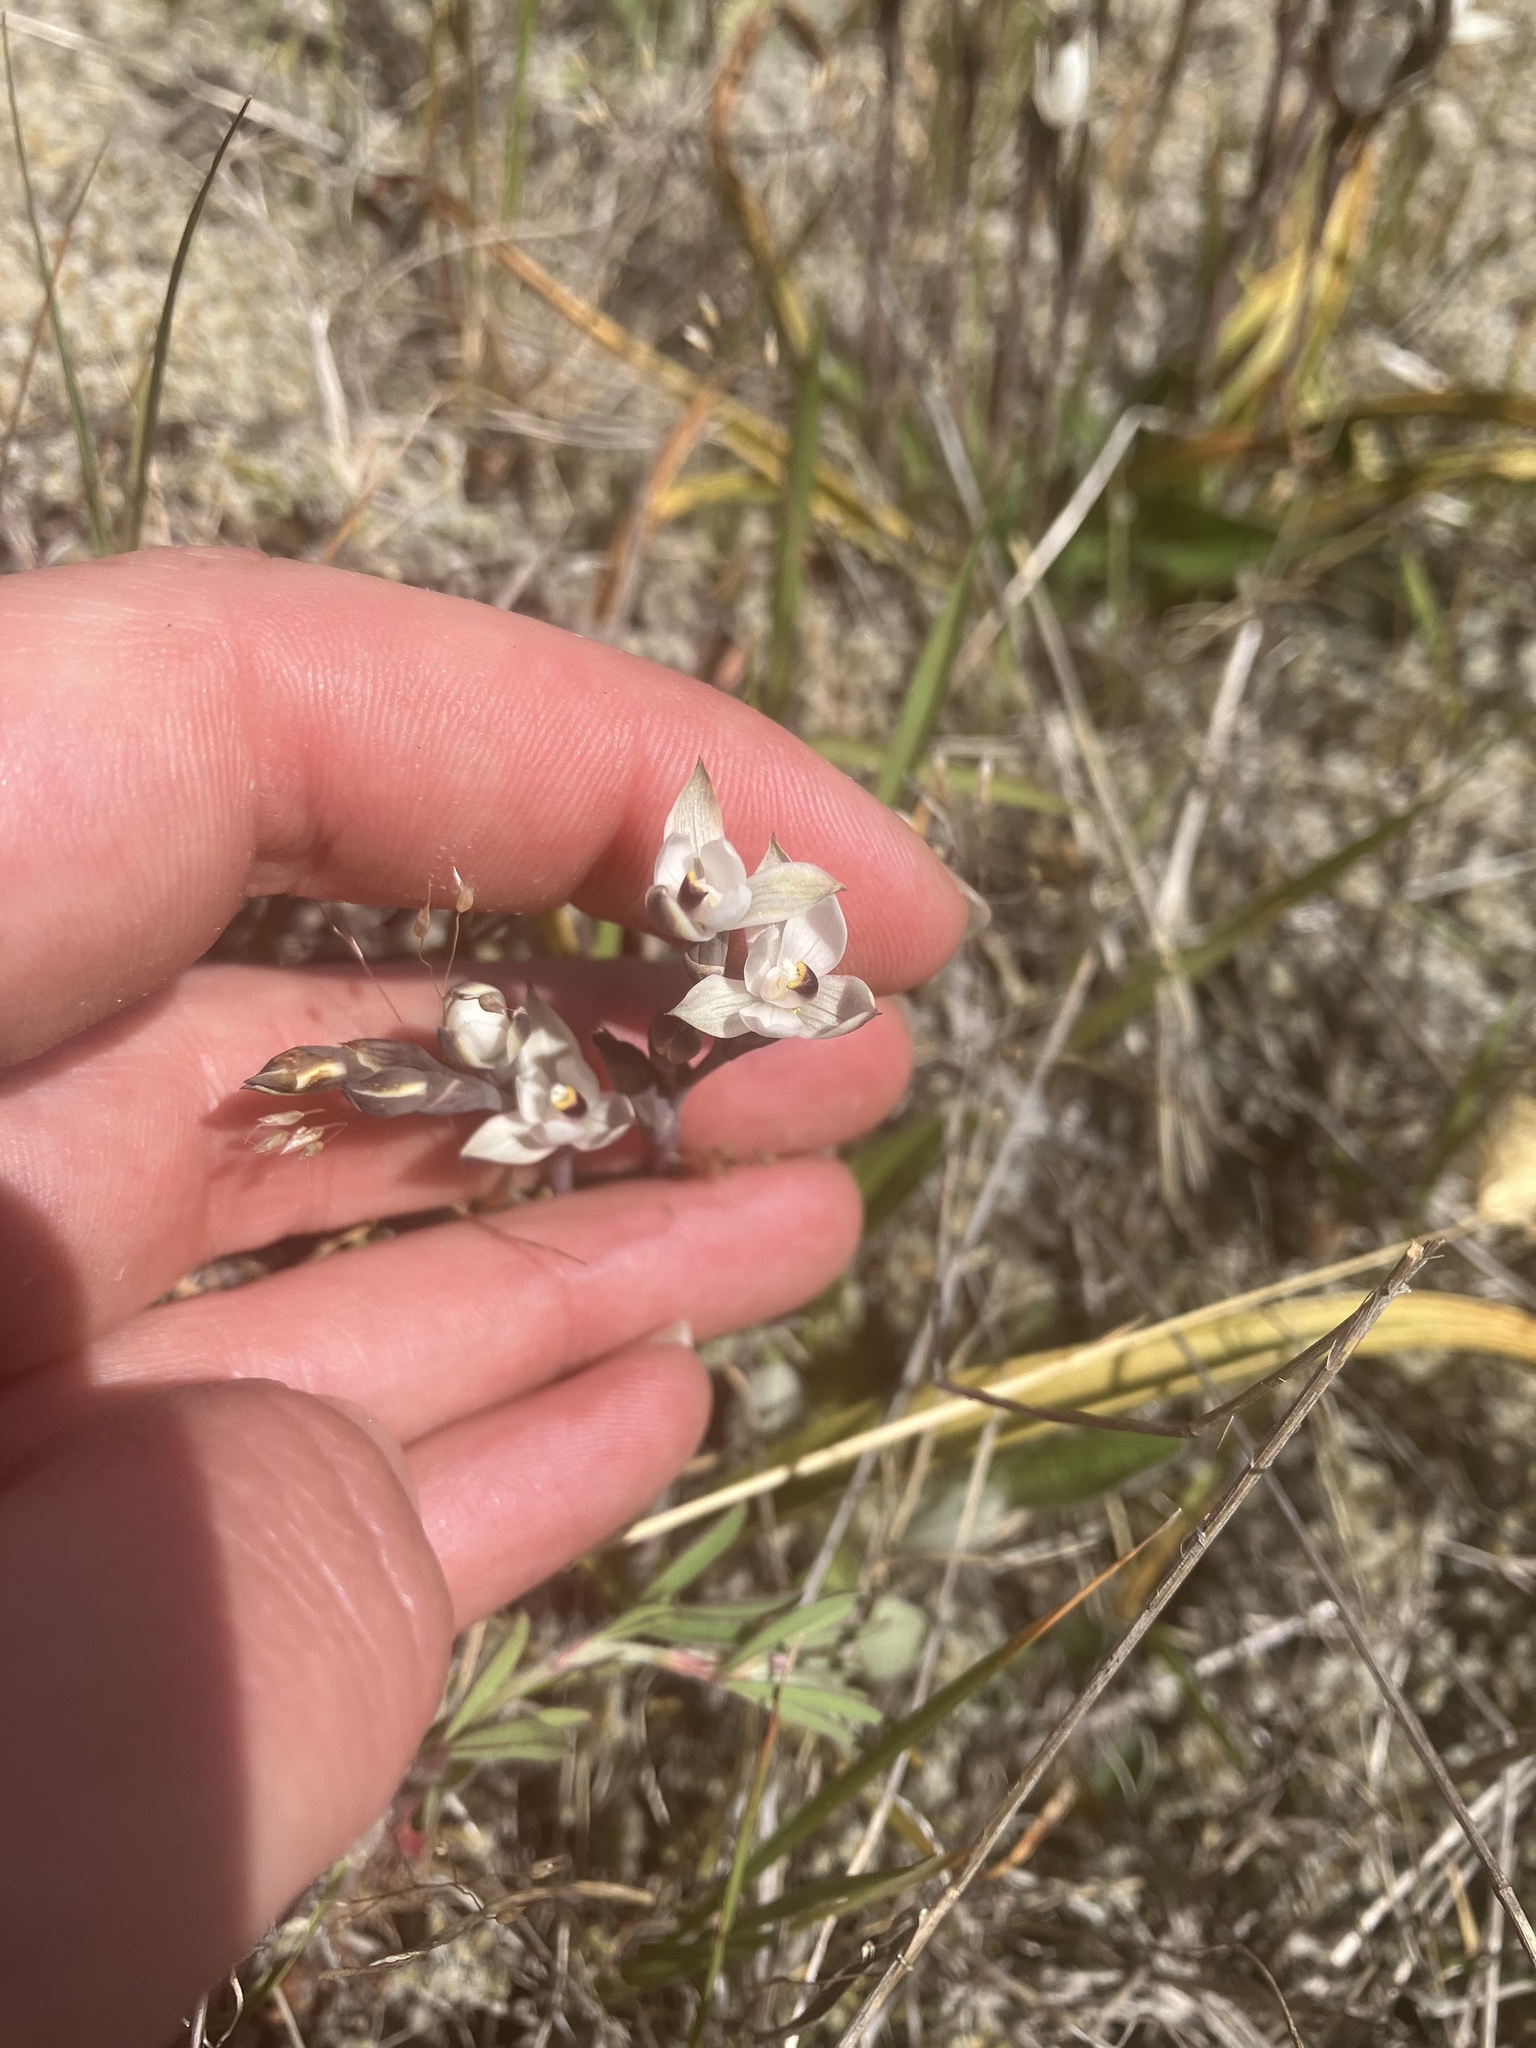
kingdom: Plantae
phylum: Tracheophyta
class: Liliopsida
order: Asparagales
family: Orchidaceae
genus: Thelymitra
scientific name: Thelymitra longifolia
